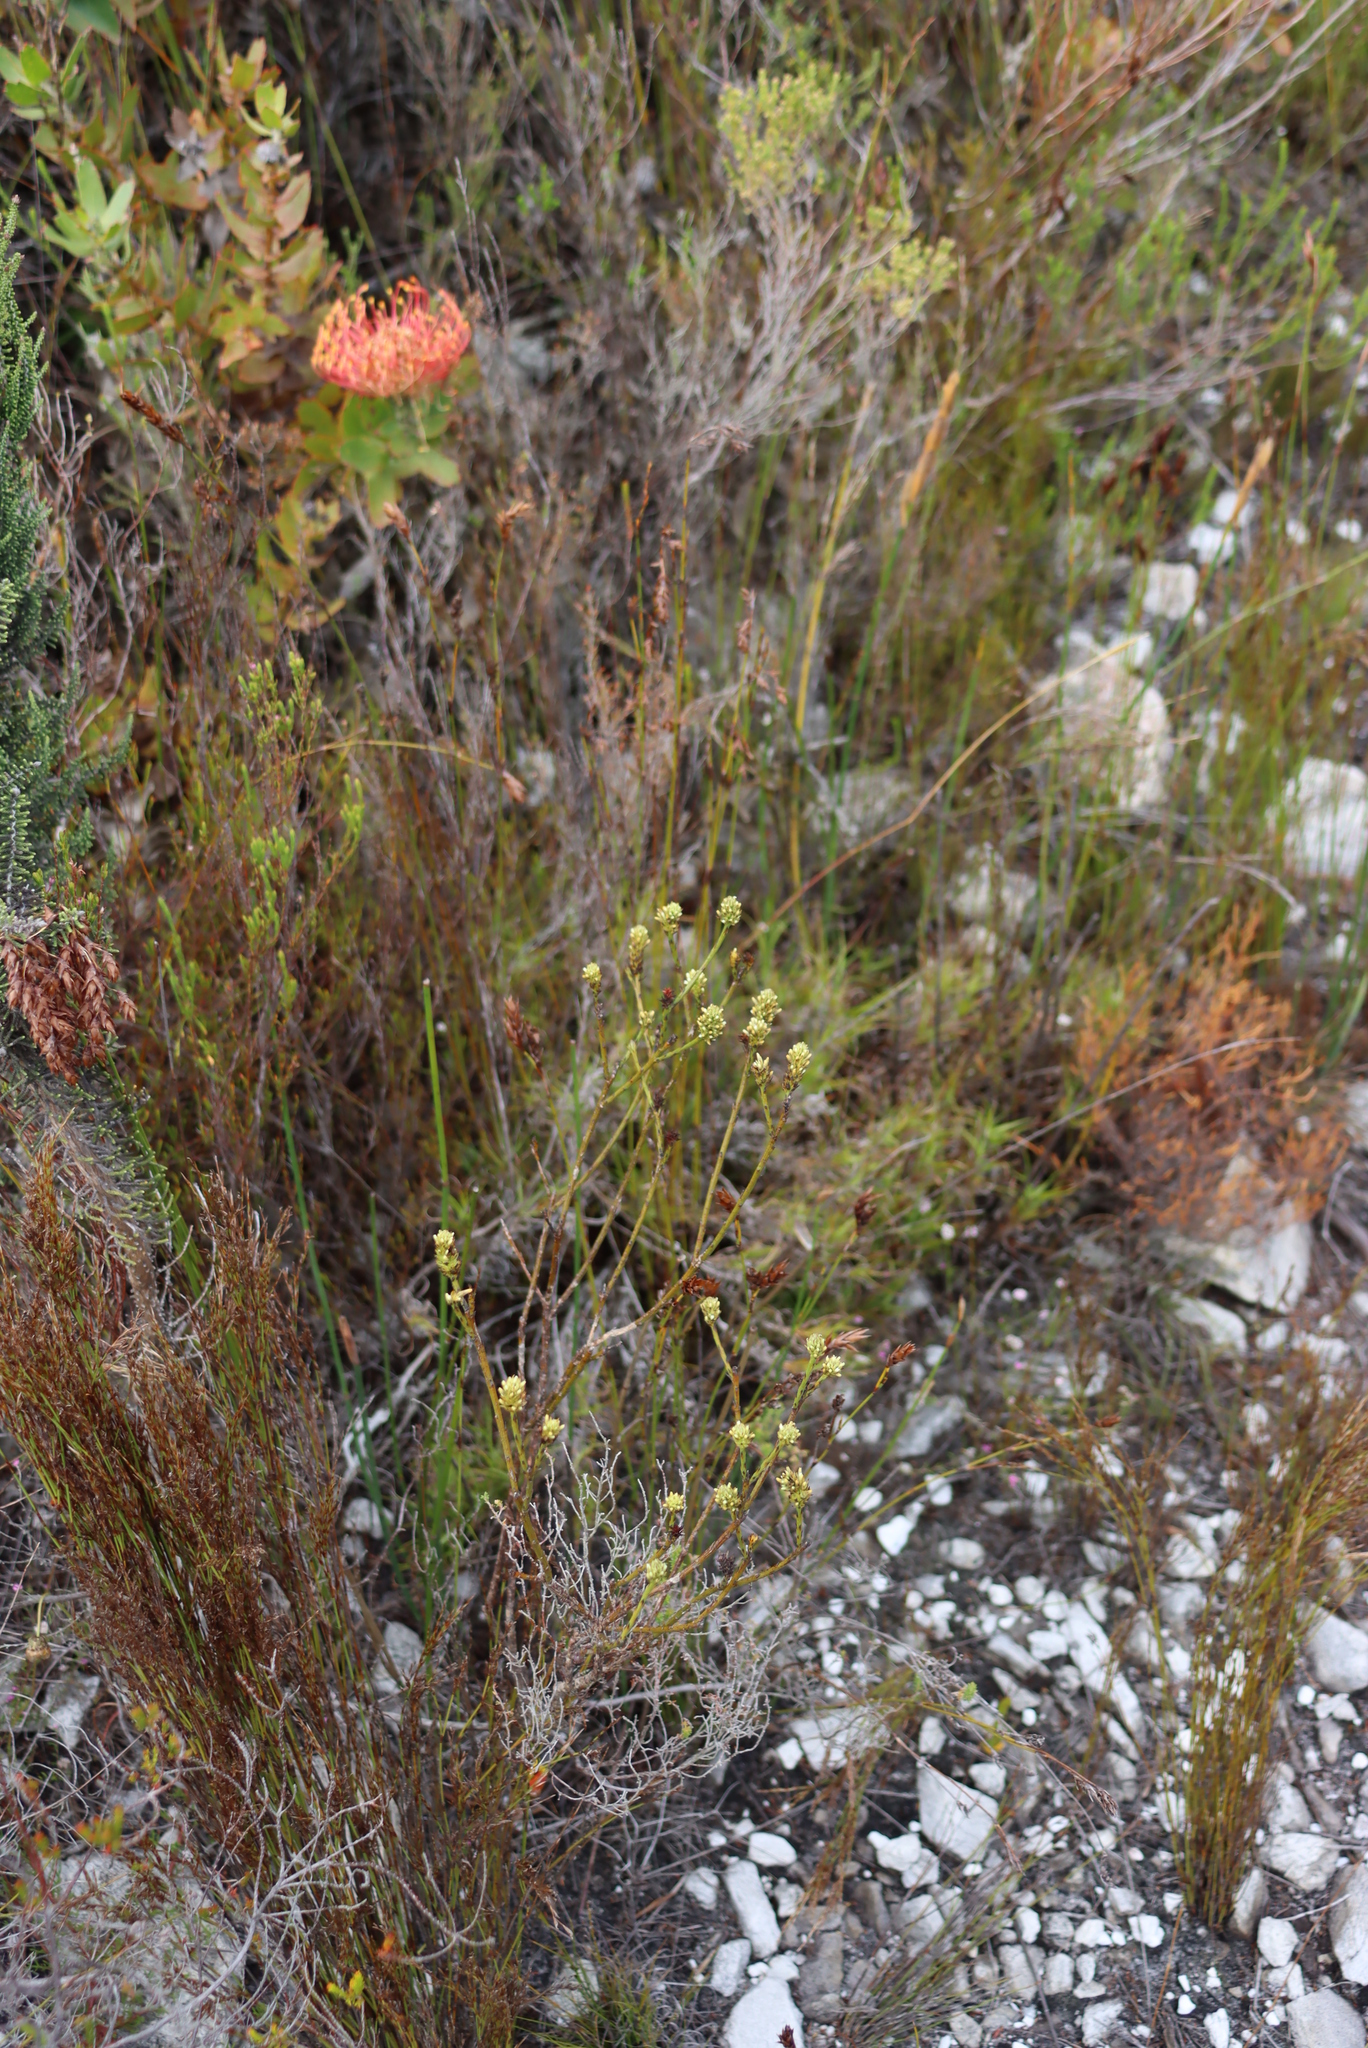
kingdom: Plantae
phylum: Tracheophyta
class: Magnoliopsida
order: Santalales
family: Thesiaceae
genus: Thesium
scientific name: Thesium spicatum
